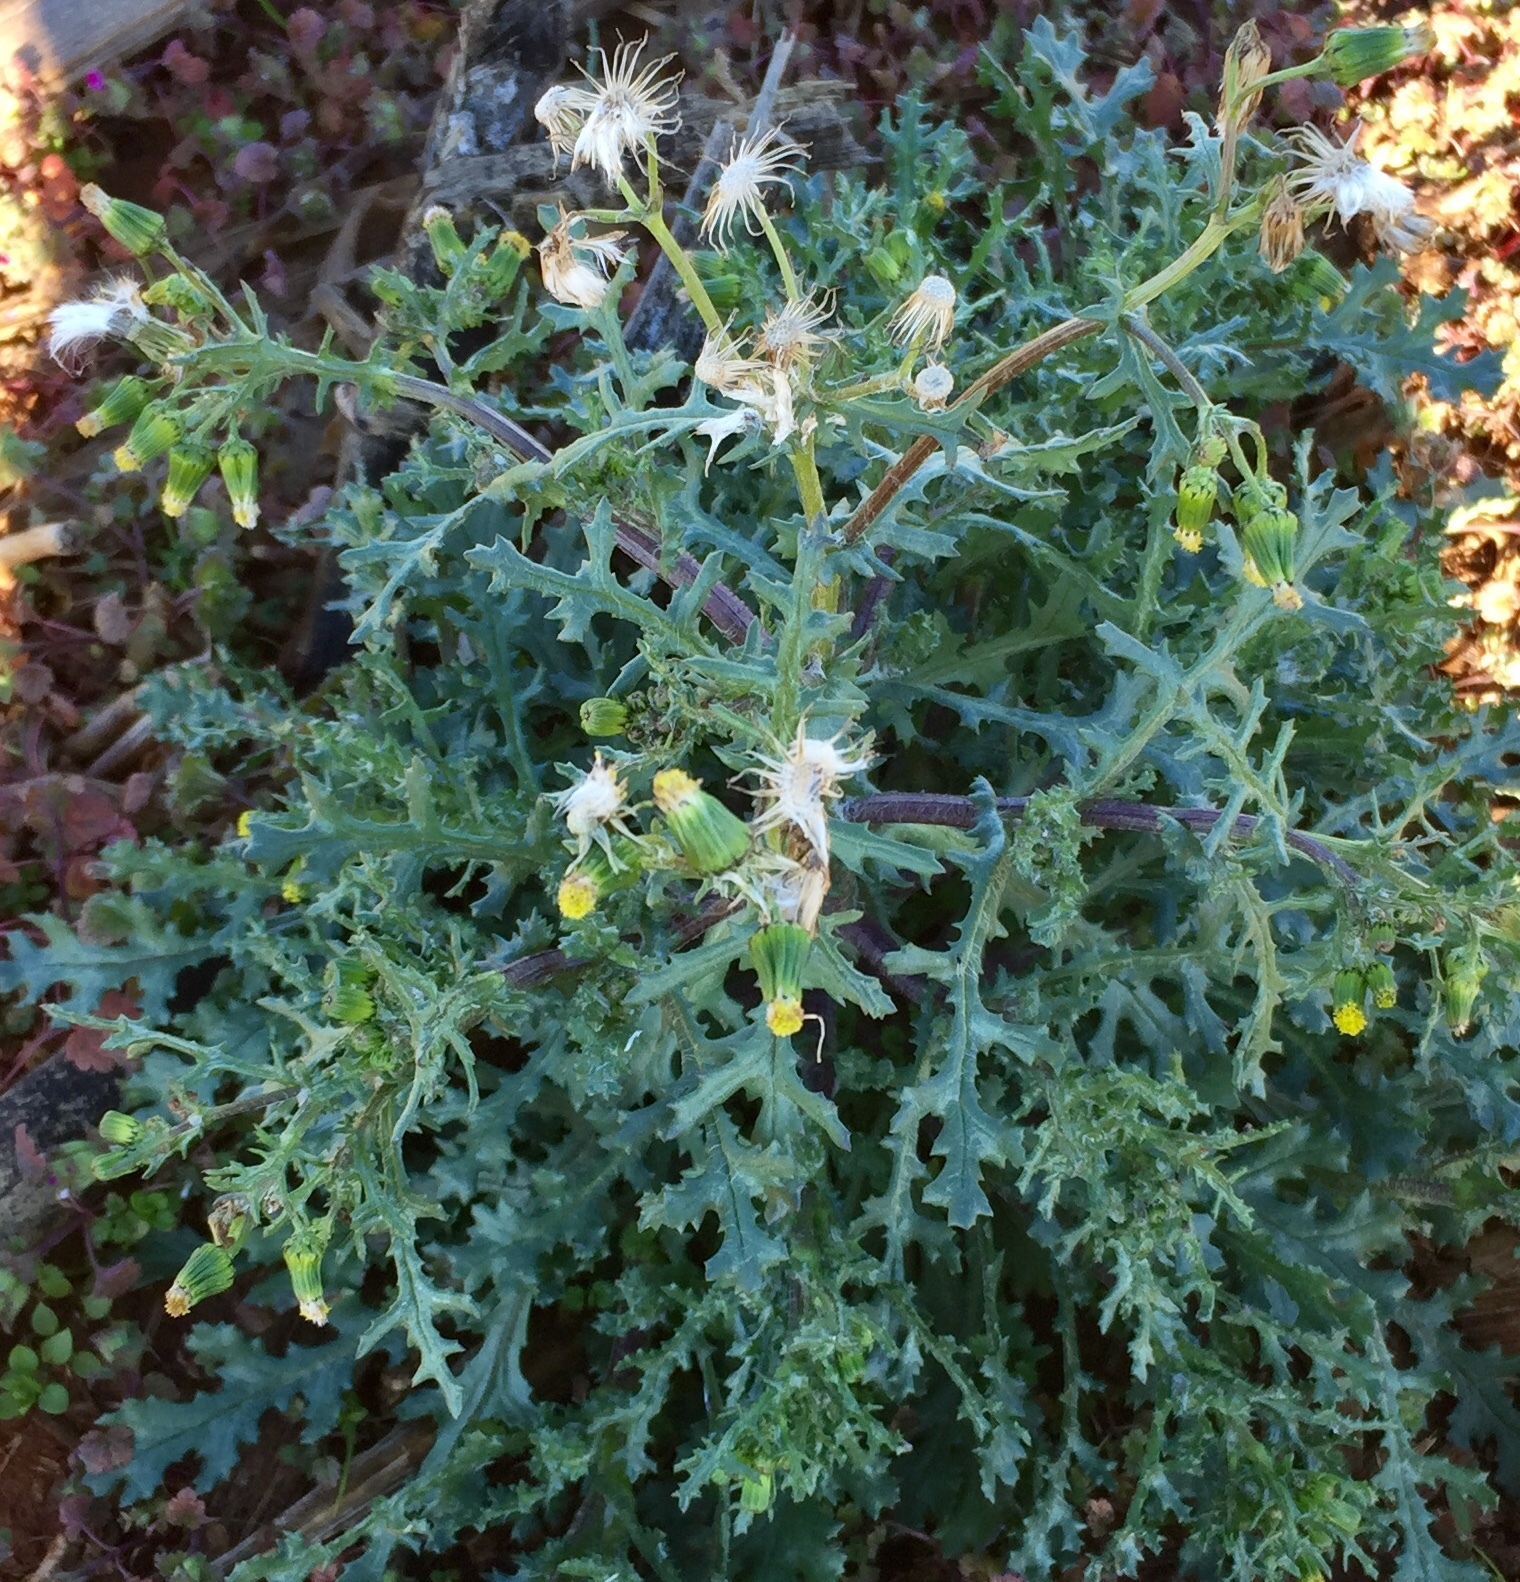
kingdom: Plantae
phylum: Tracheophyta
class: Magnoliopsida
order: Asterales
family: Asteraceae
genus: Senecio
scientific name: Senecio vulgaris
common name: Old-man-in-the-spring
